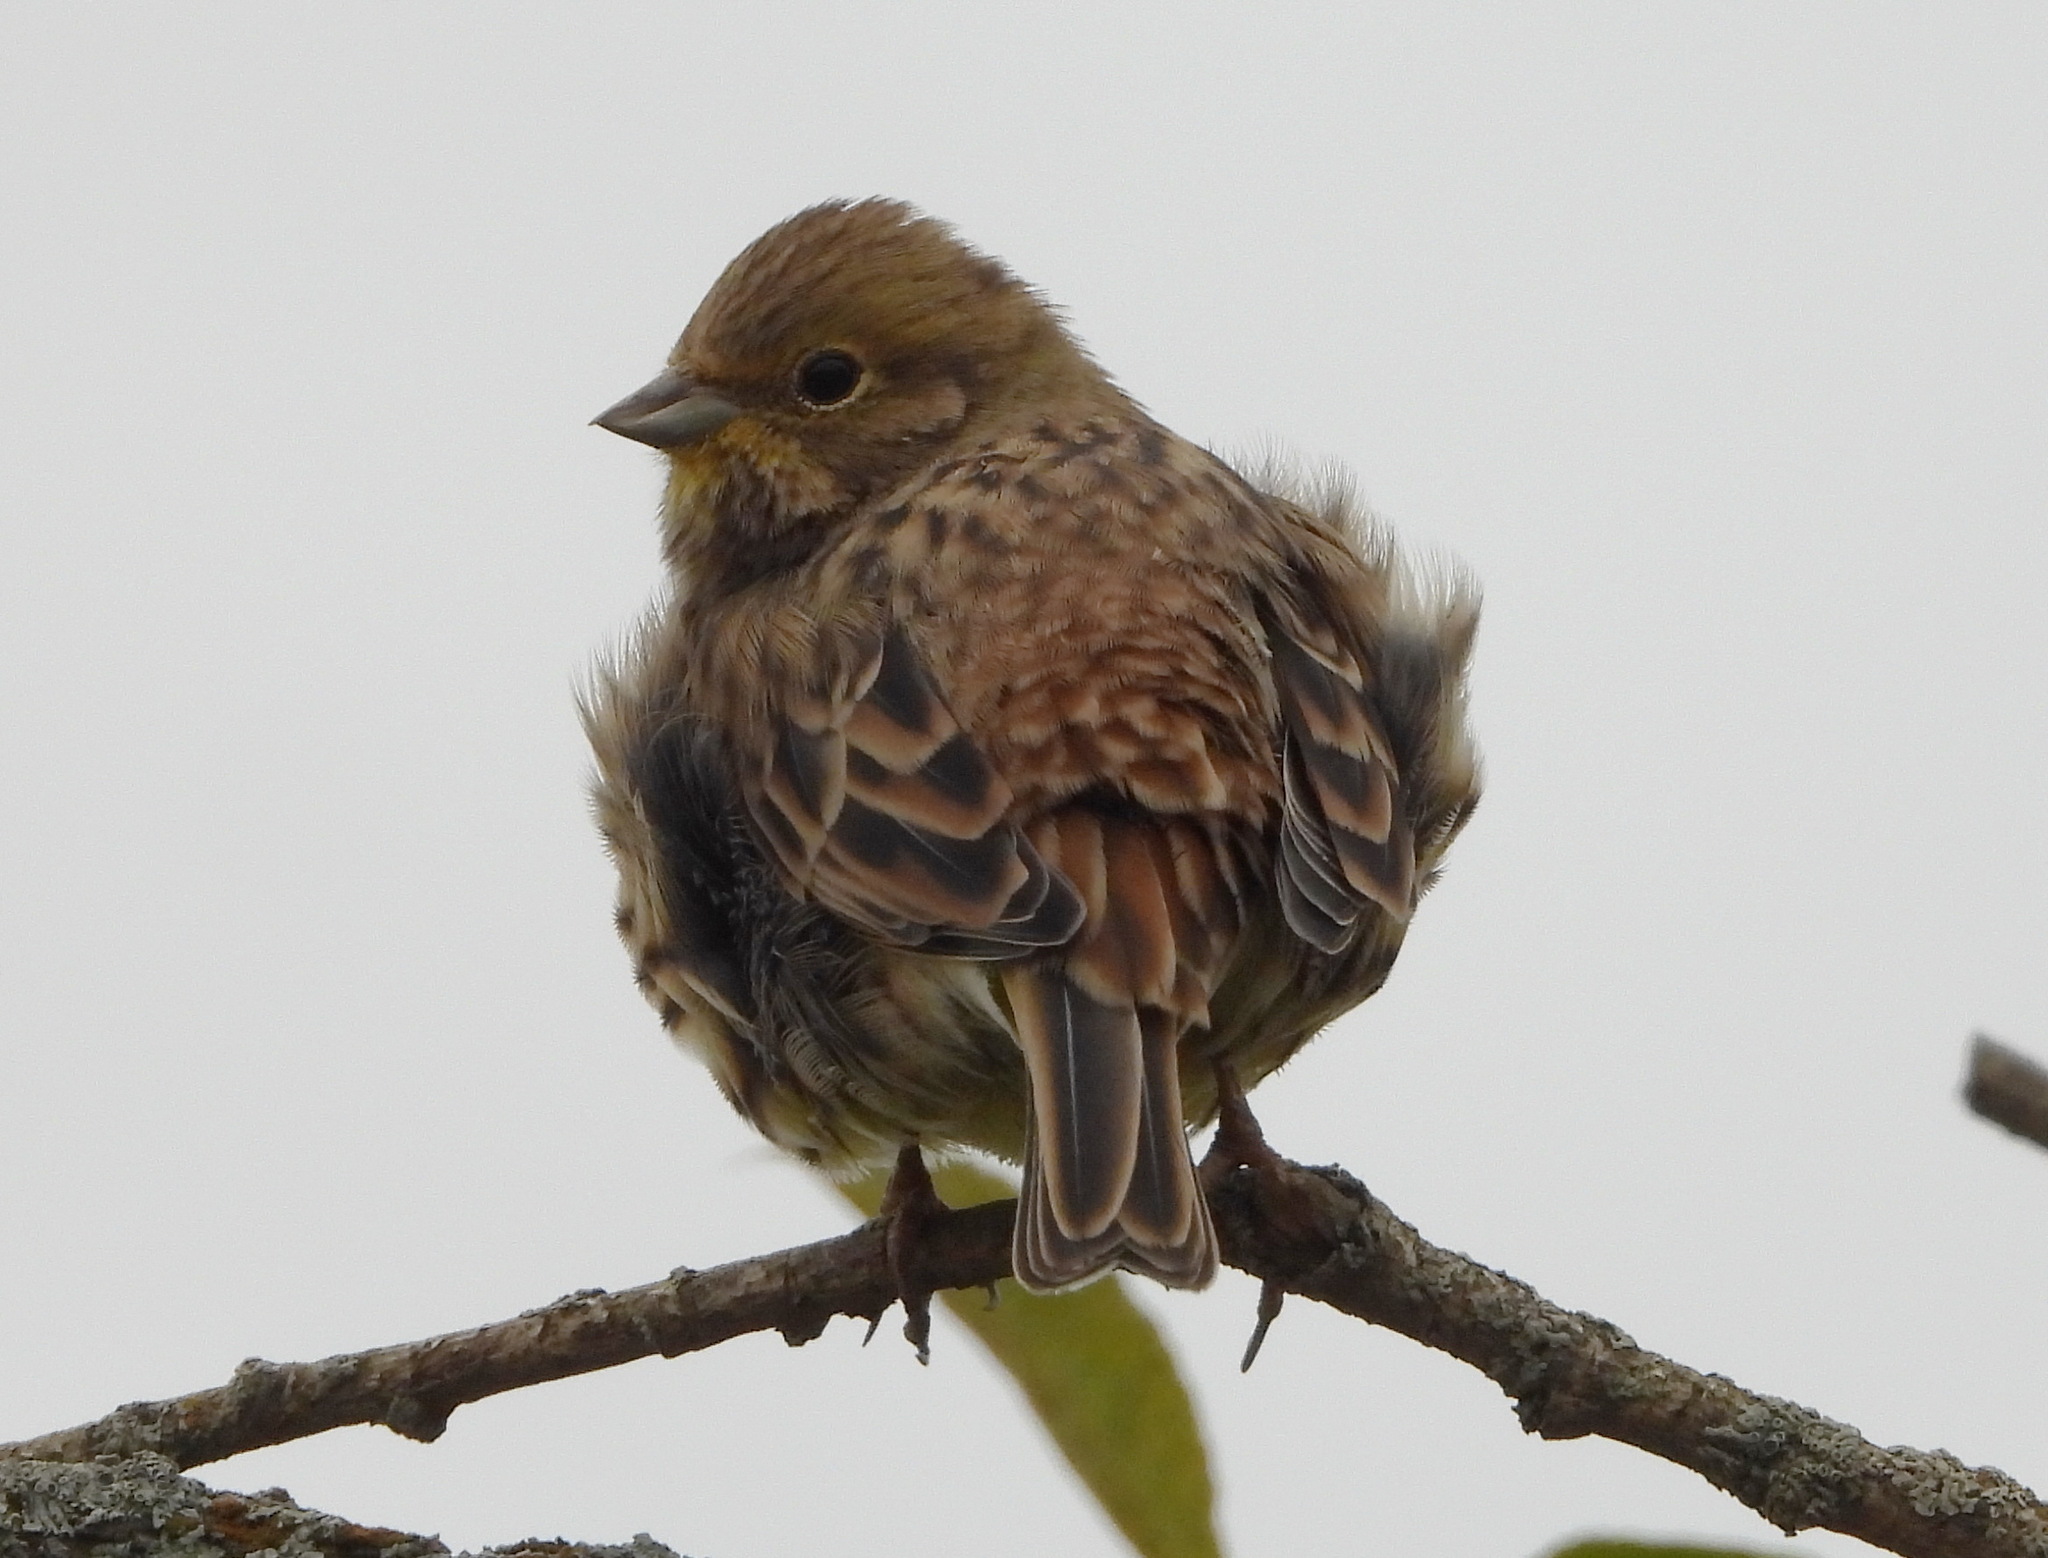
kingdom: Animalia
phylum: Chordata
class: Aves
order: Passeriformes
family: Emberizidae
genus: Emberiza
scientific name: Emberiza citrinella
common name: Yellowhammer
